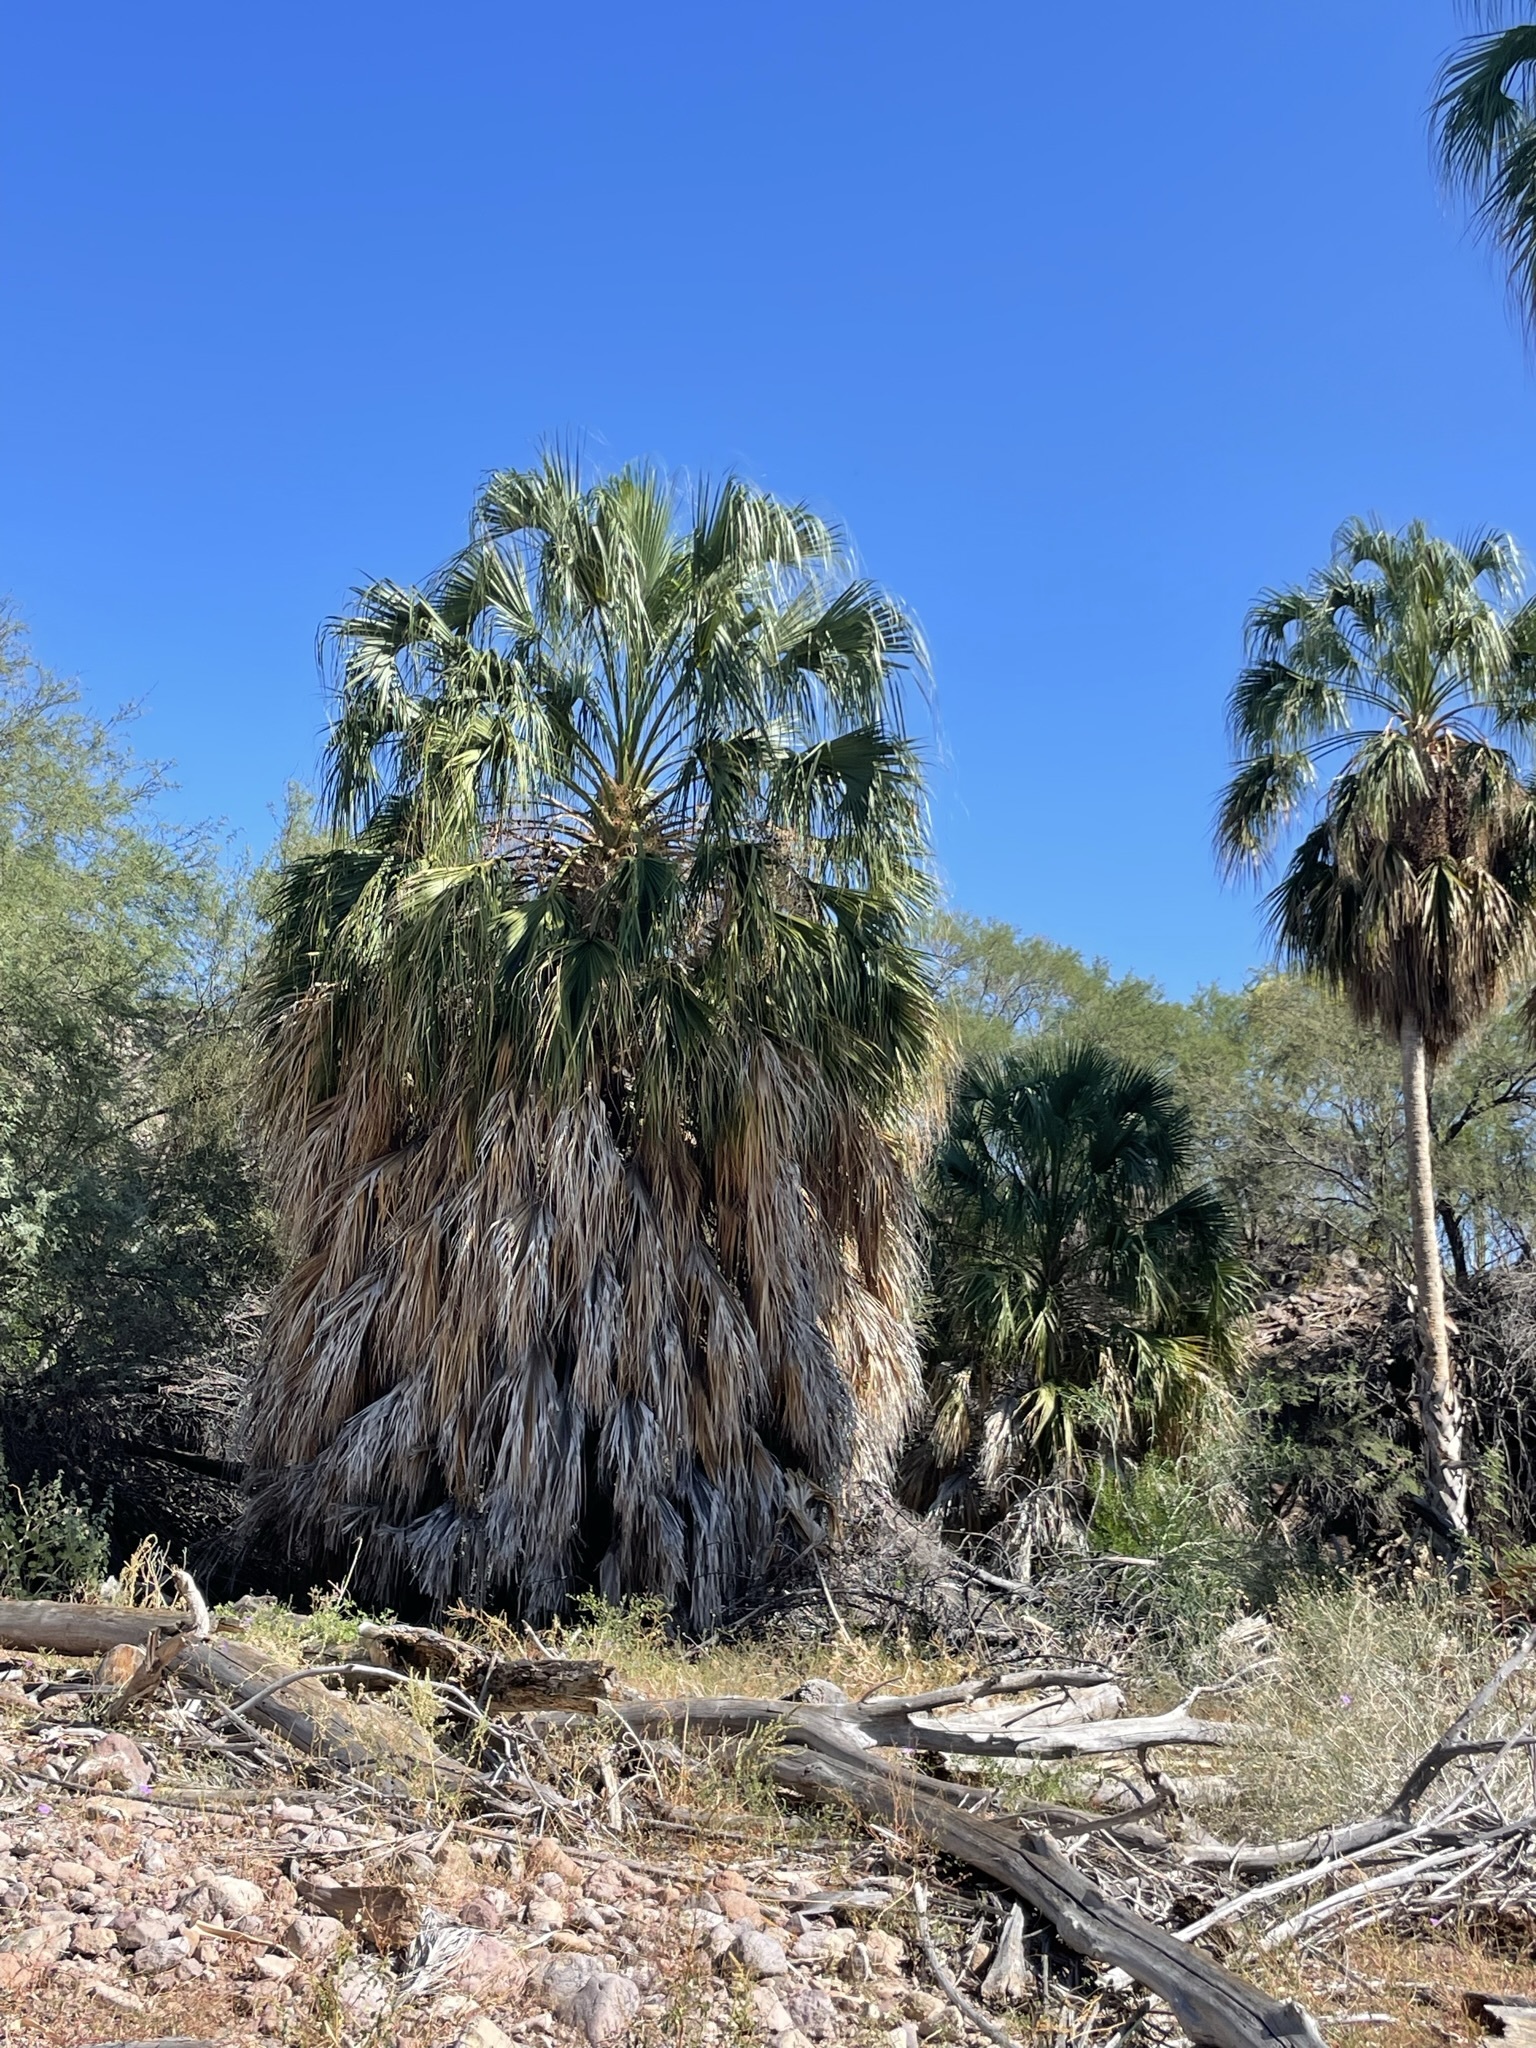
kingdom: Plantae
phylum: Tracheophyta
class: Liliopsida
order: Arecales
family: Arecaceae
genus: Sabal
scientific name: Sabal uresana
